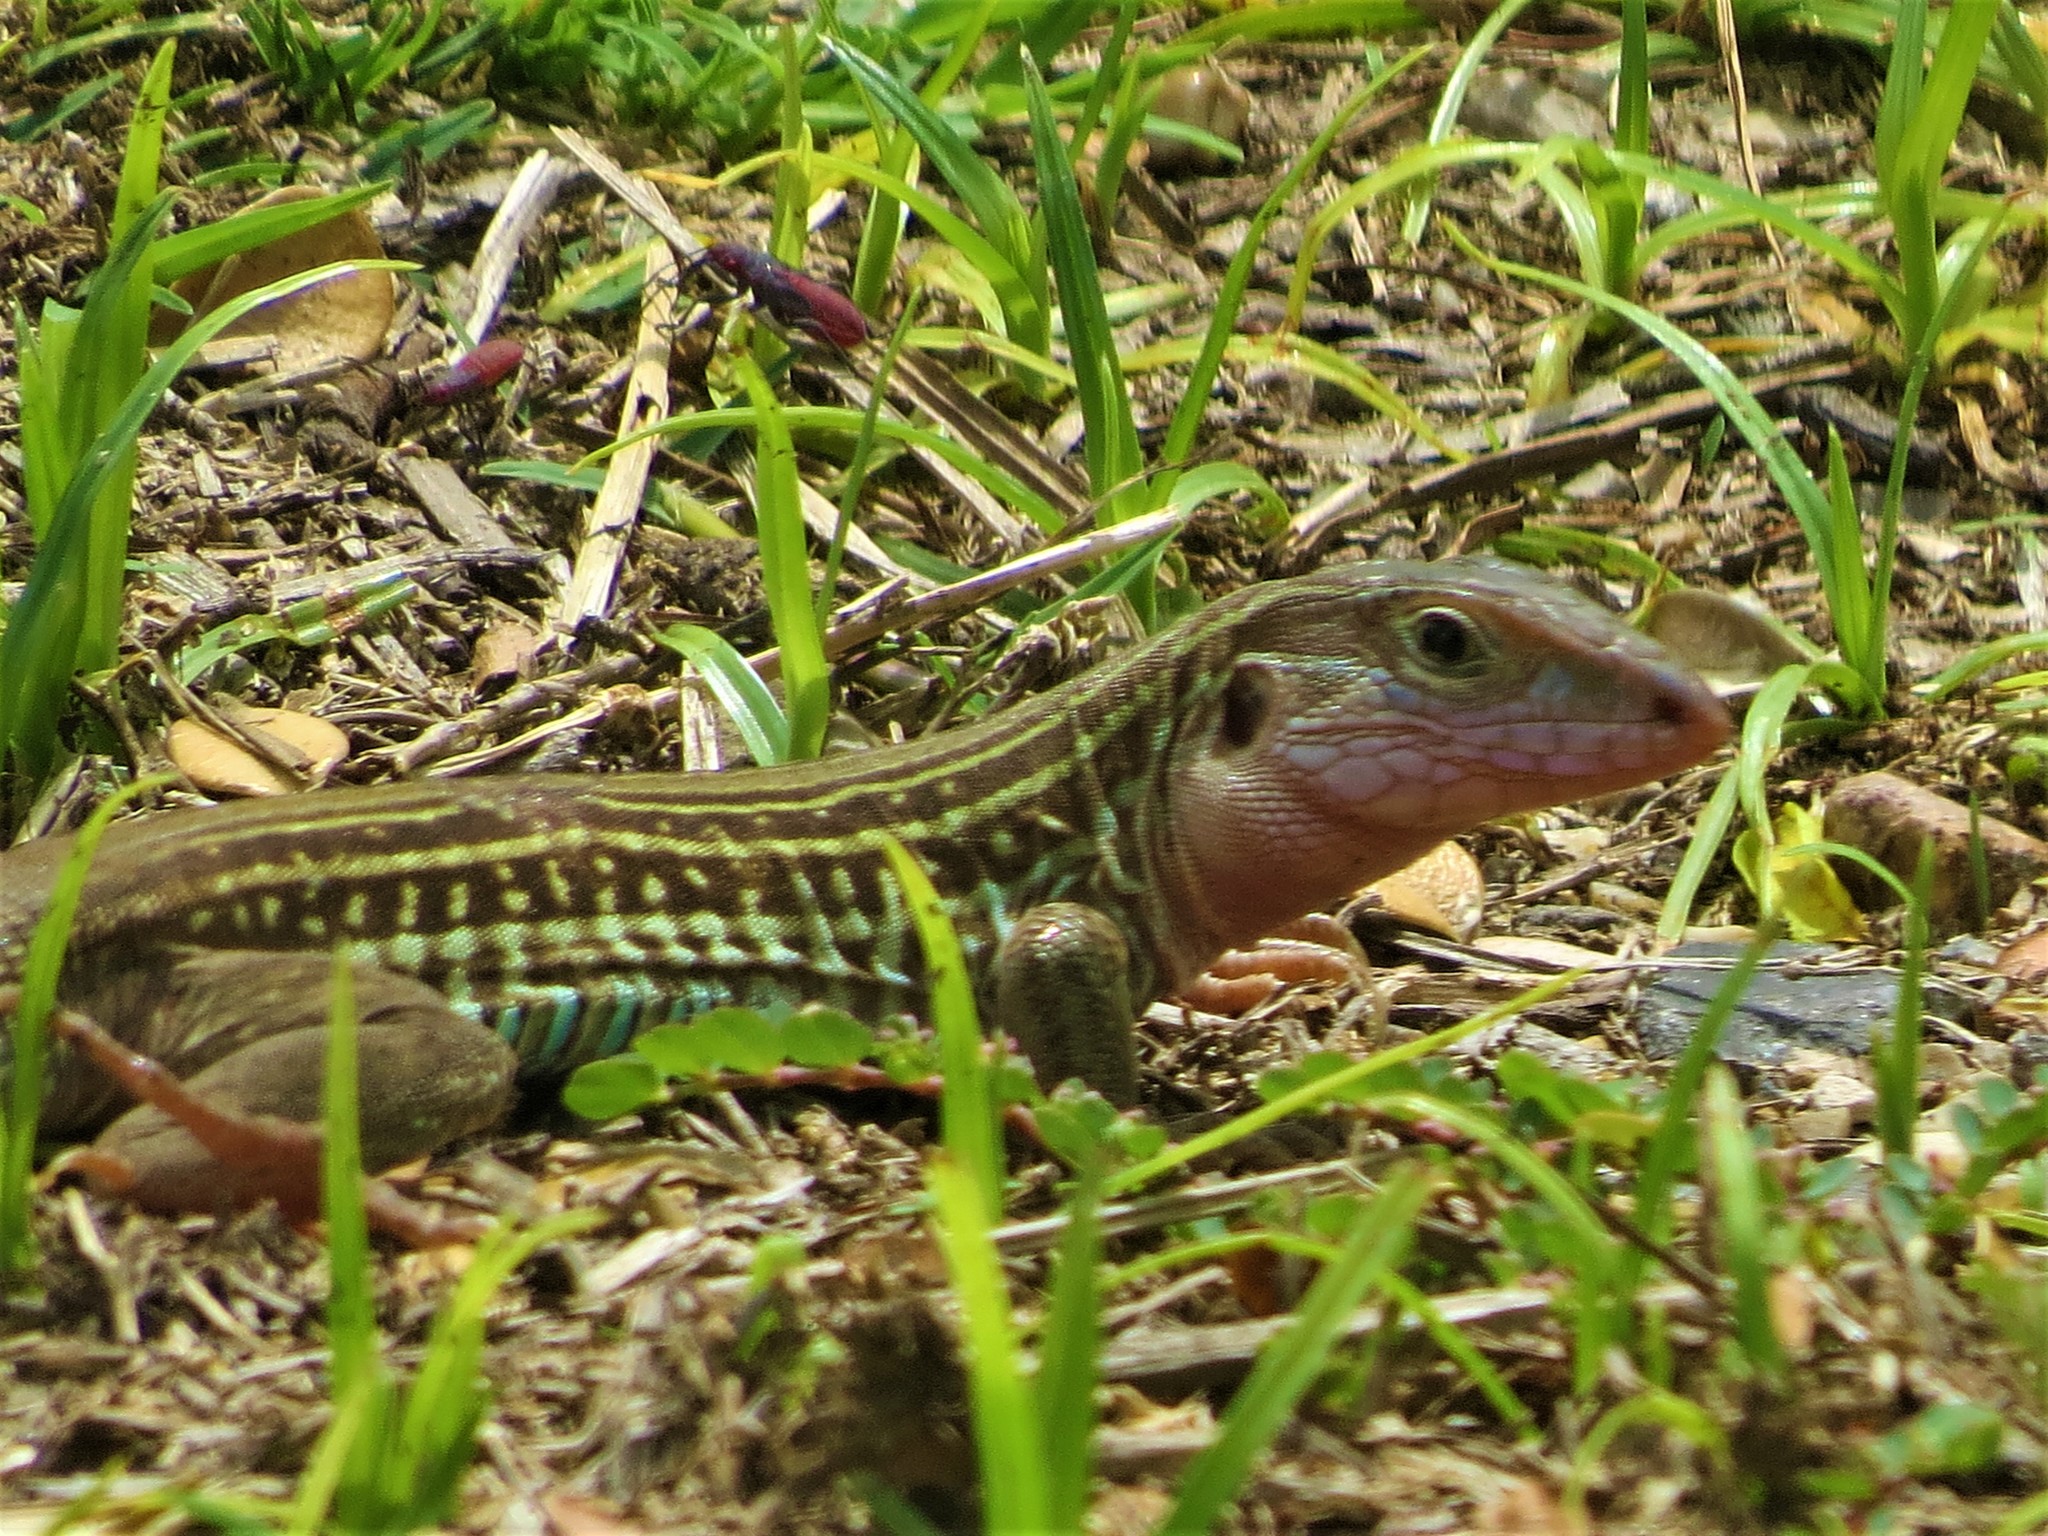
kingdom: Animalia
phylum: Chordata
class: Squamata
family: Teiidae
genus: Aspidoscelis
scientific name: Aspidoscelis gularis
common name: Eastern spotted whiptail
